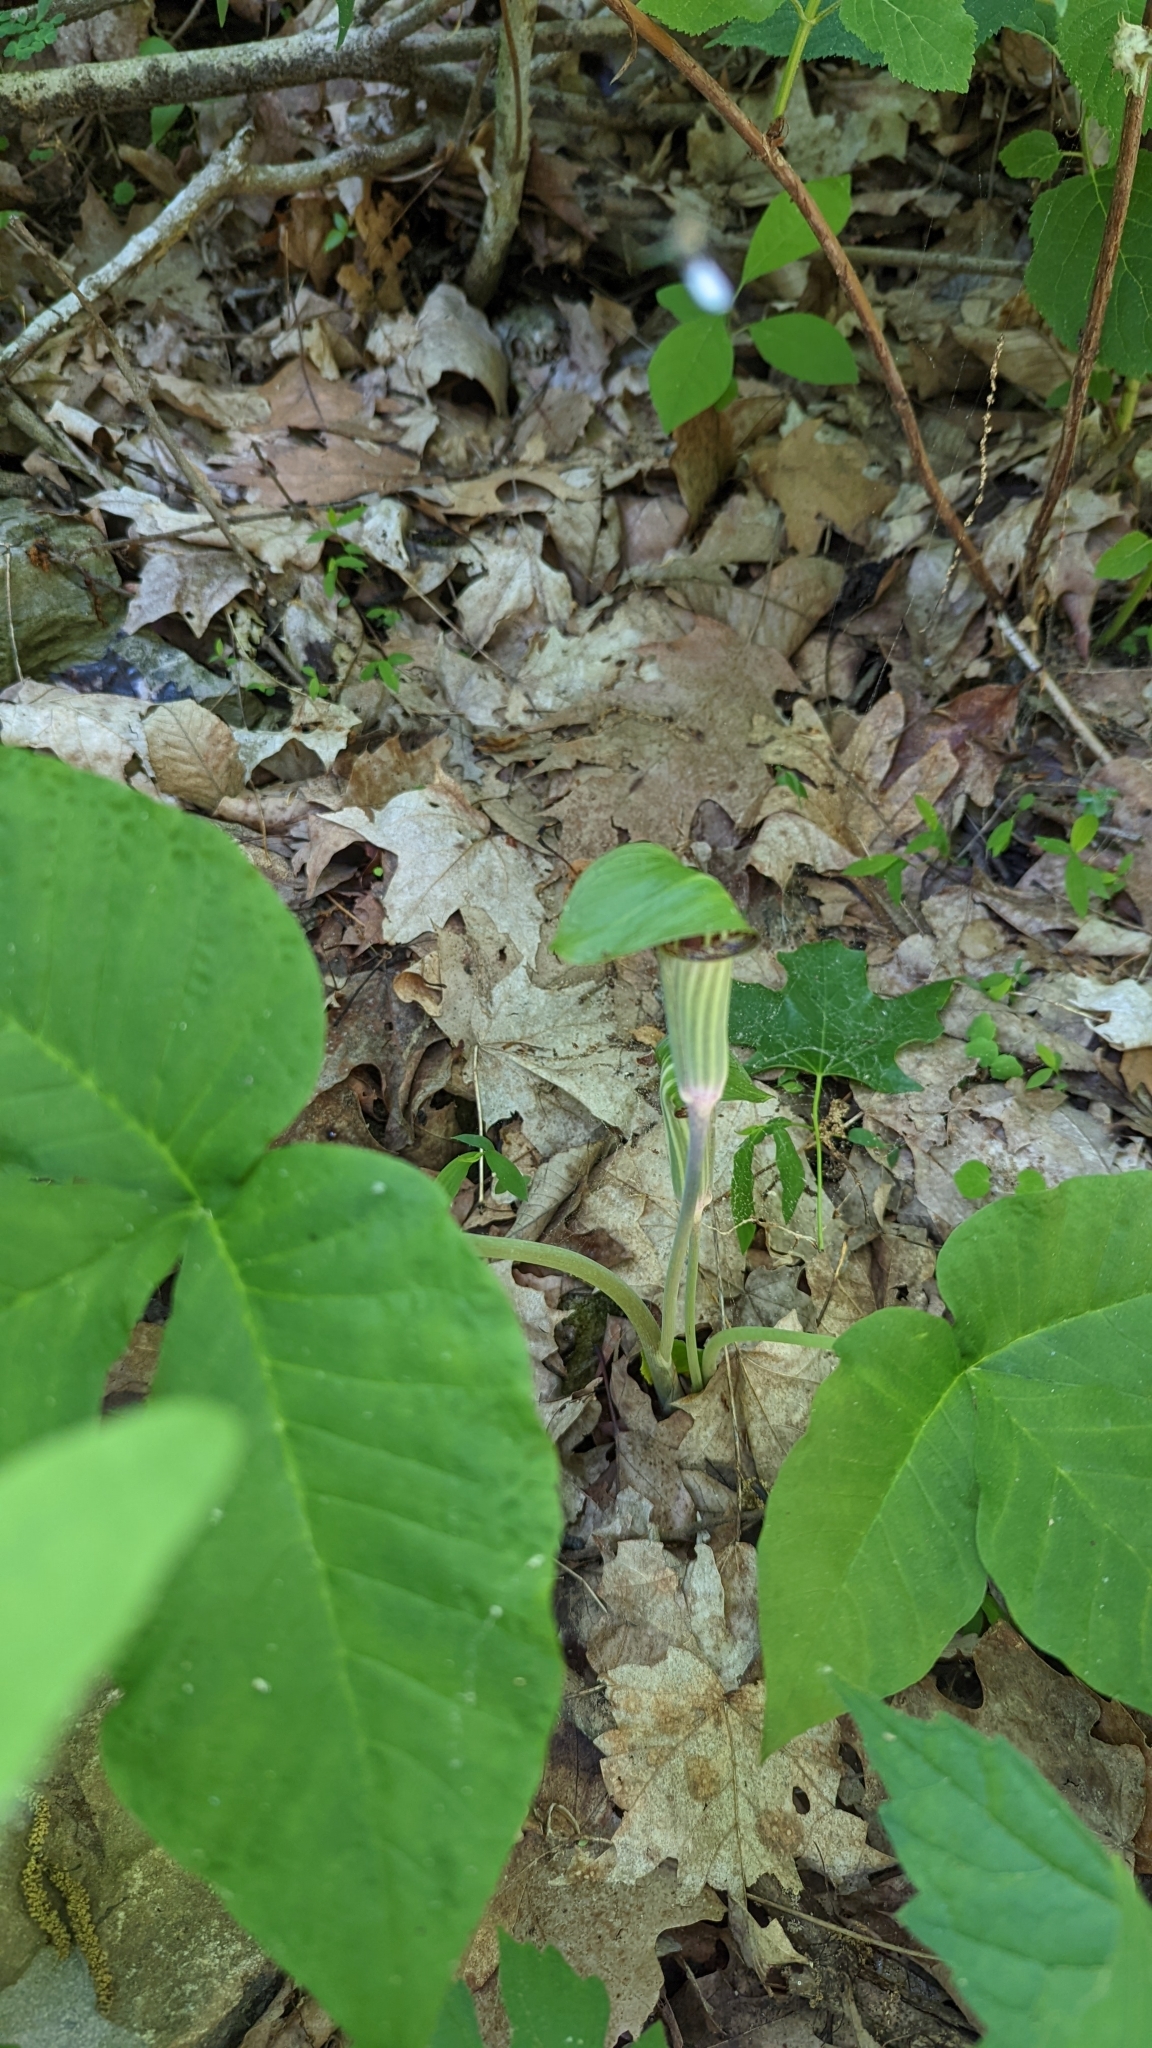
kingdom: Plantae
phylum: Tracheophyta
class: Liliopsida
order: Alismatales
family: Araceae
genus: Arisaema
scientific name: Arisaema triphyllum
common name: Jack-in-the-pulpit
